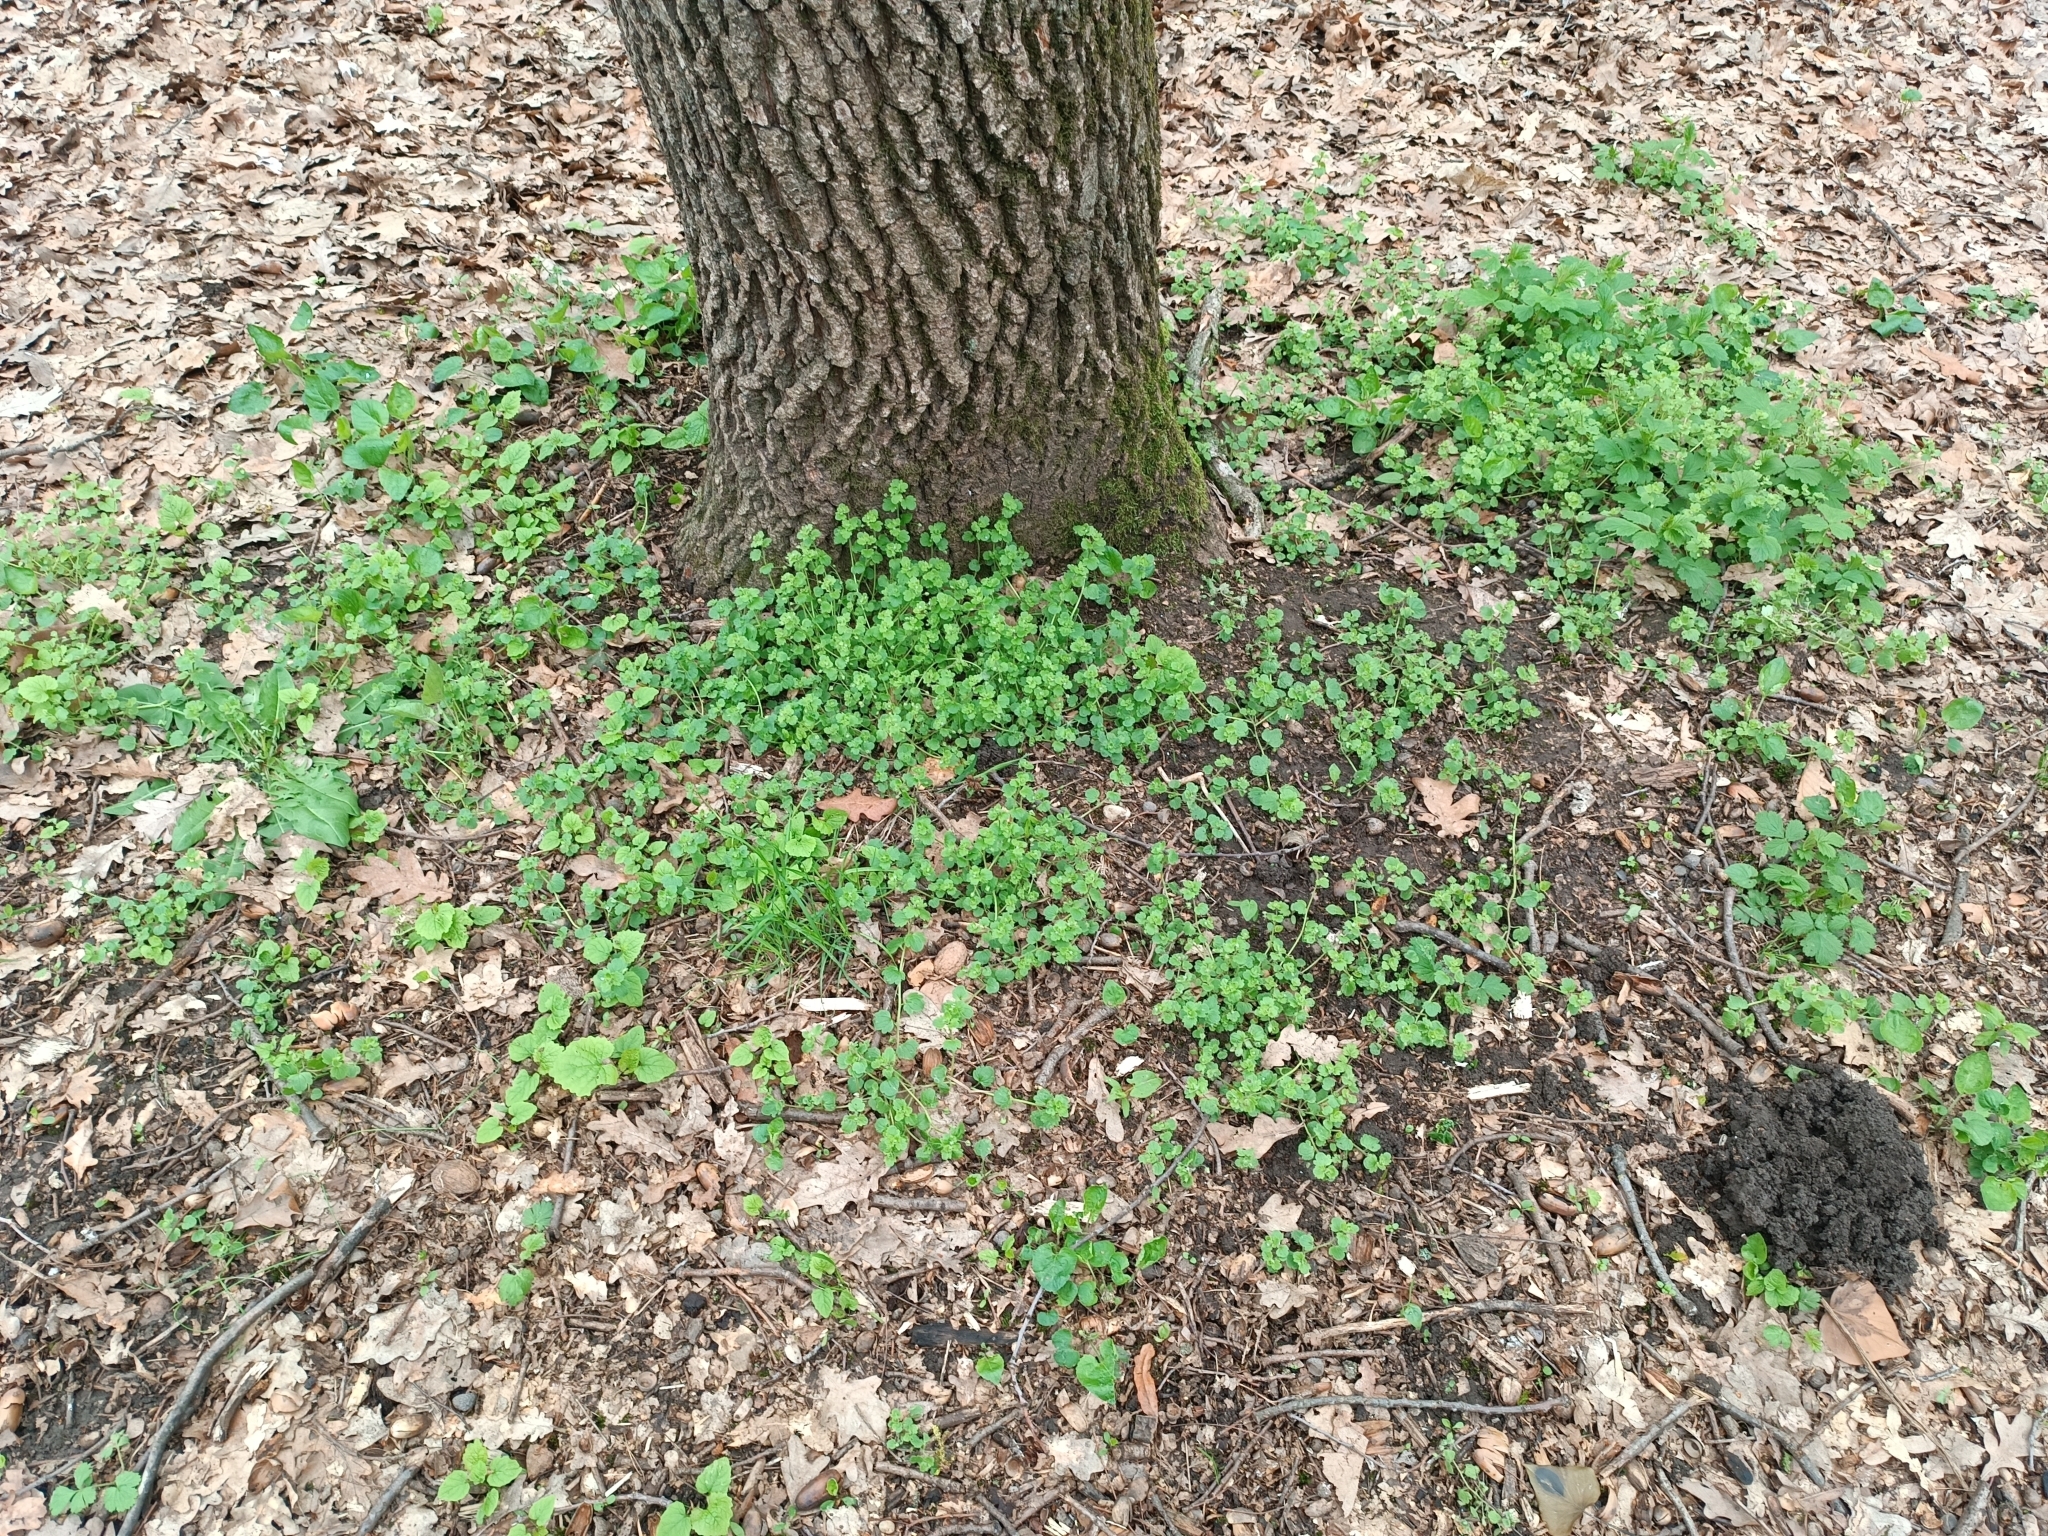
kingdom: Plantae
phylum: Tracheophyta
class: Magnoliopsida
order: Lamiales
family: Plantaginaceae
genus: Veronica
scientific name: Veronica sublobata
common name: False ivy-leaved speedwell
